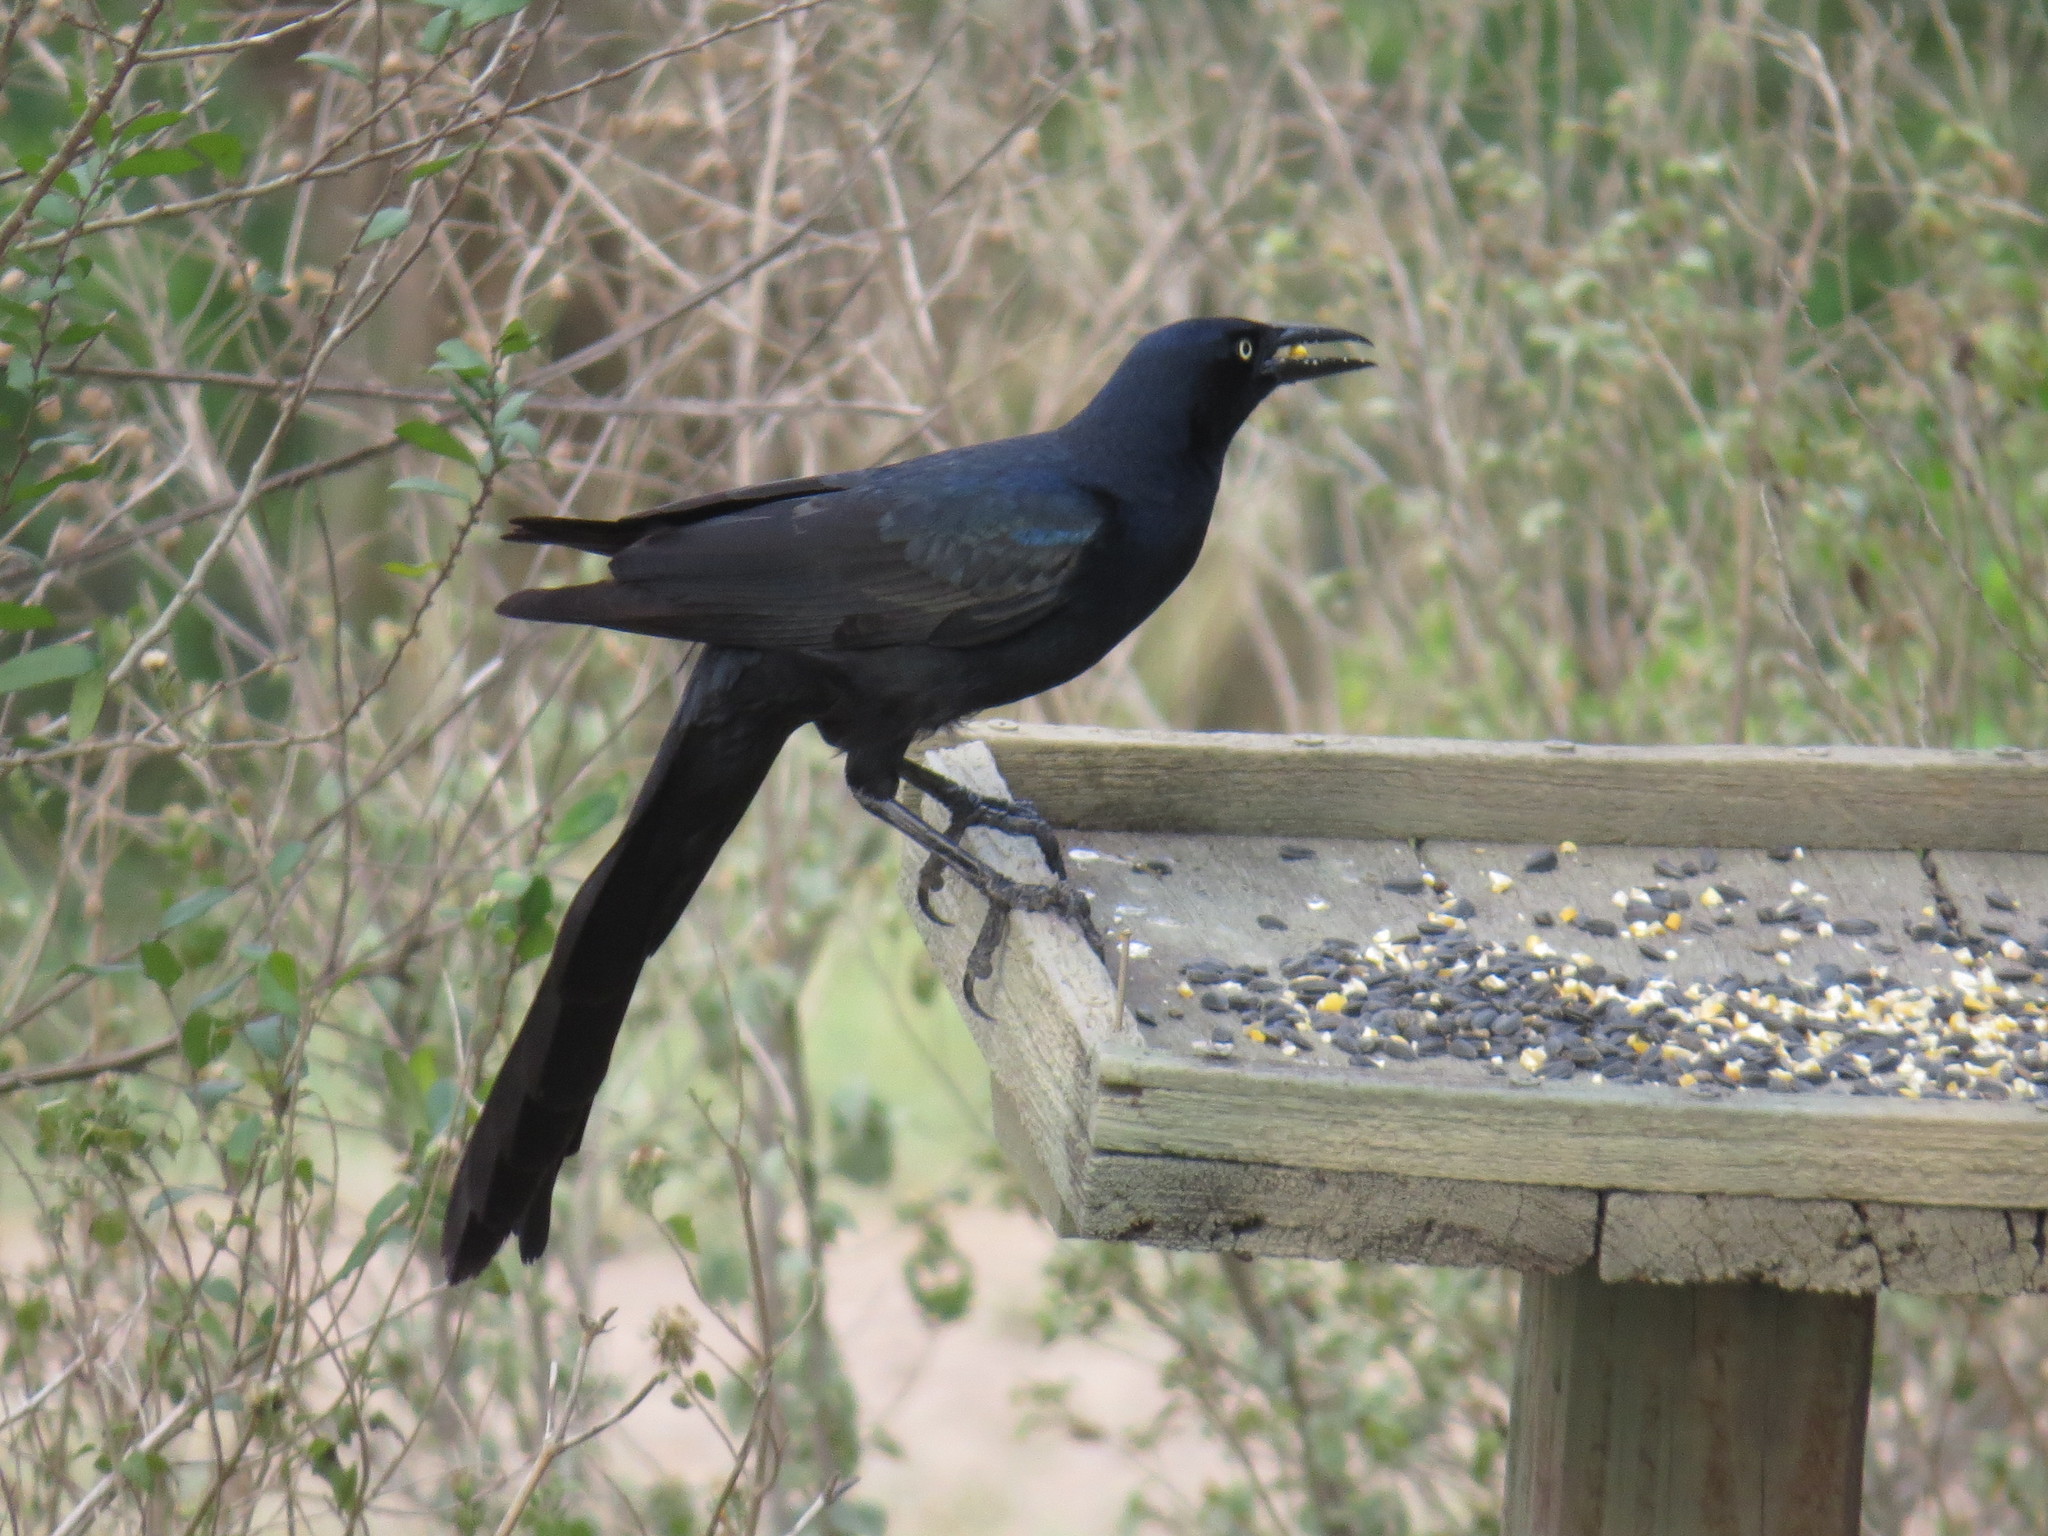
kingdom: Animalia
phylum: Chordata
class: Aves
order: Passeriformes
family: Icteridae
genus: Quiscalus
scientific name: Quiscalus mexicanus
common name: Great-tailed grackle
